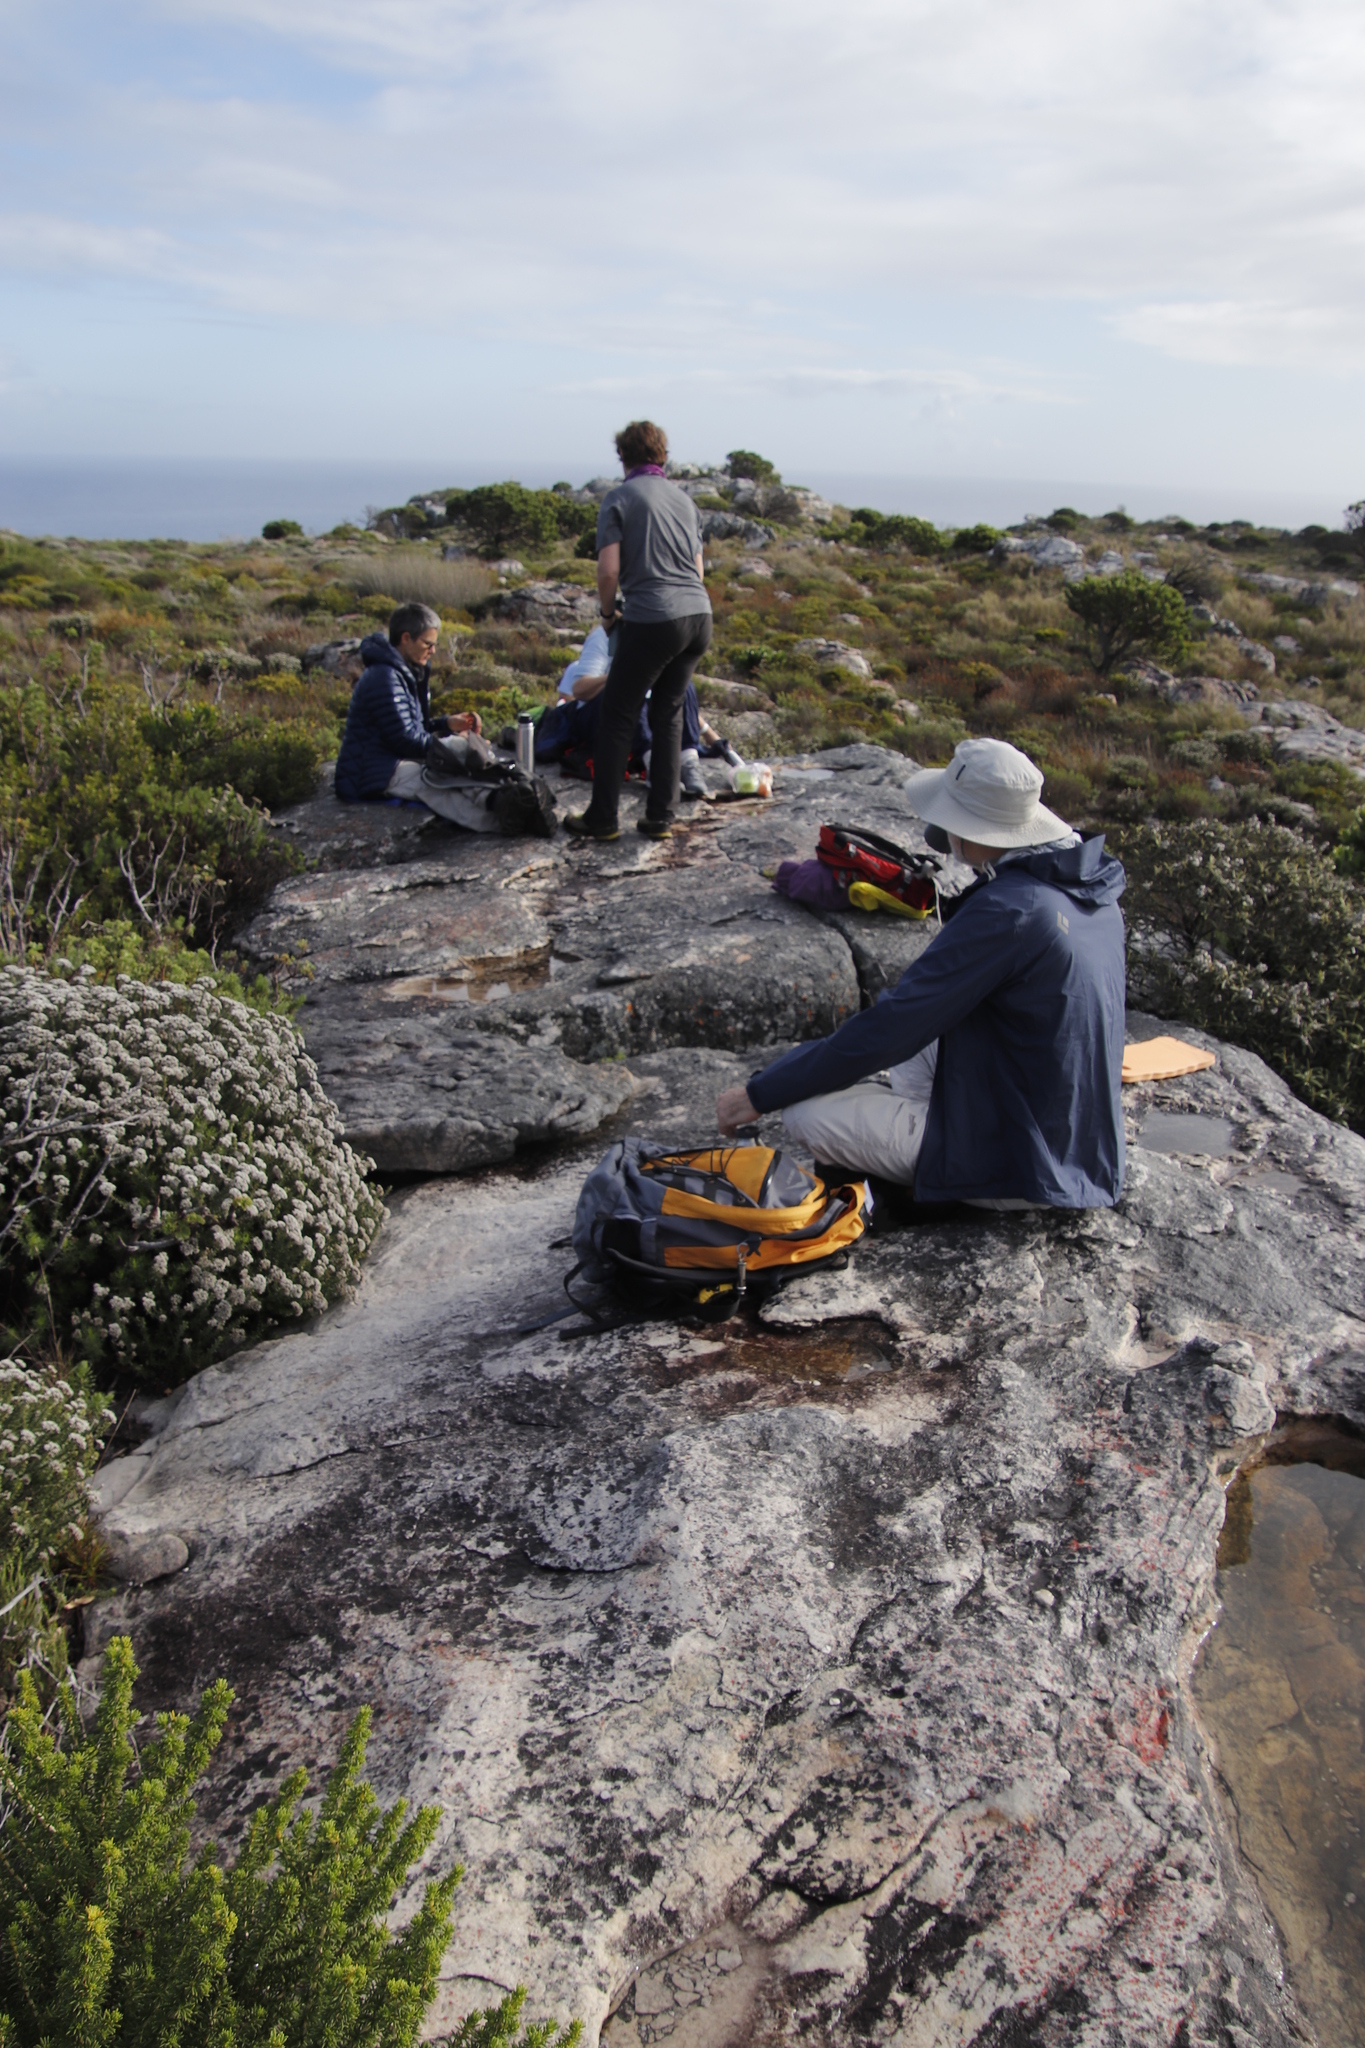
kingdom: Plantae
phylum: Tracheophyta
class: Magnoliopsida
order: Asterales
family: Asteraceae
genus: Metalasia
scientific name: Metalasia densa
